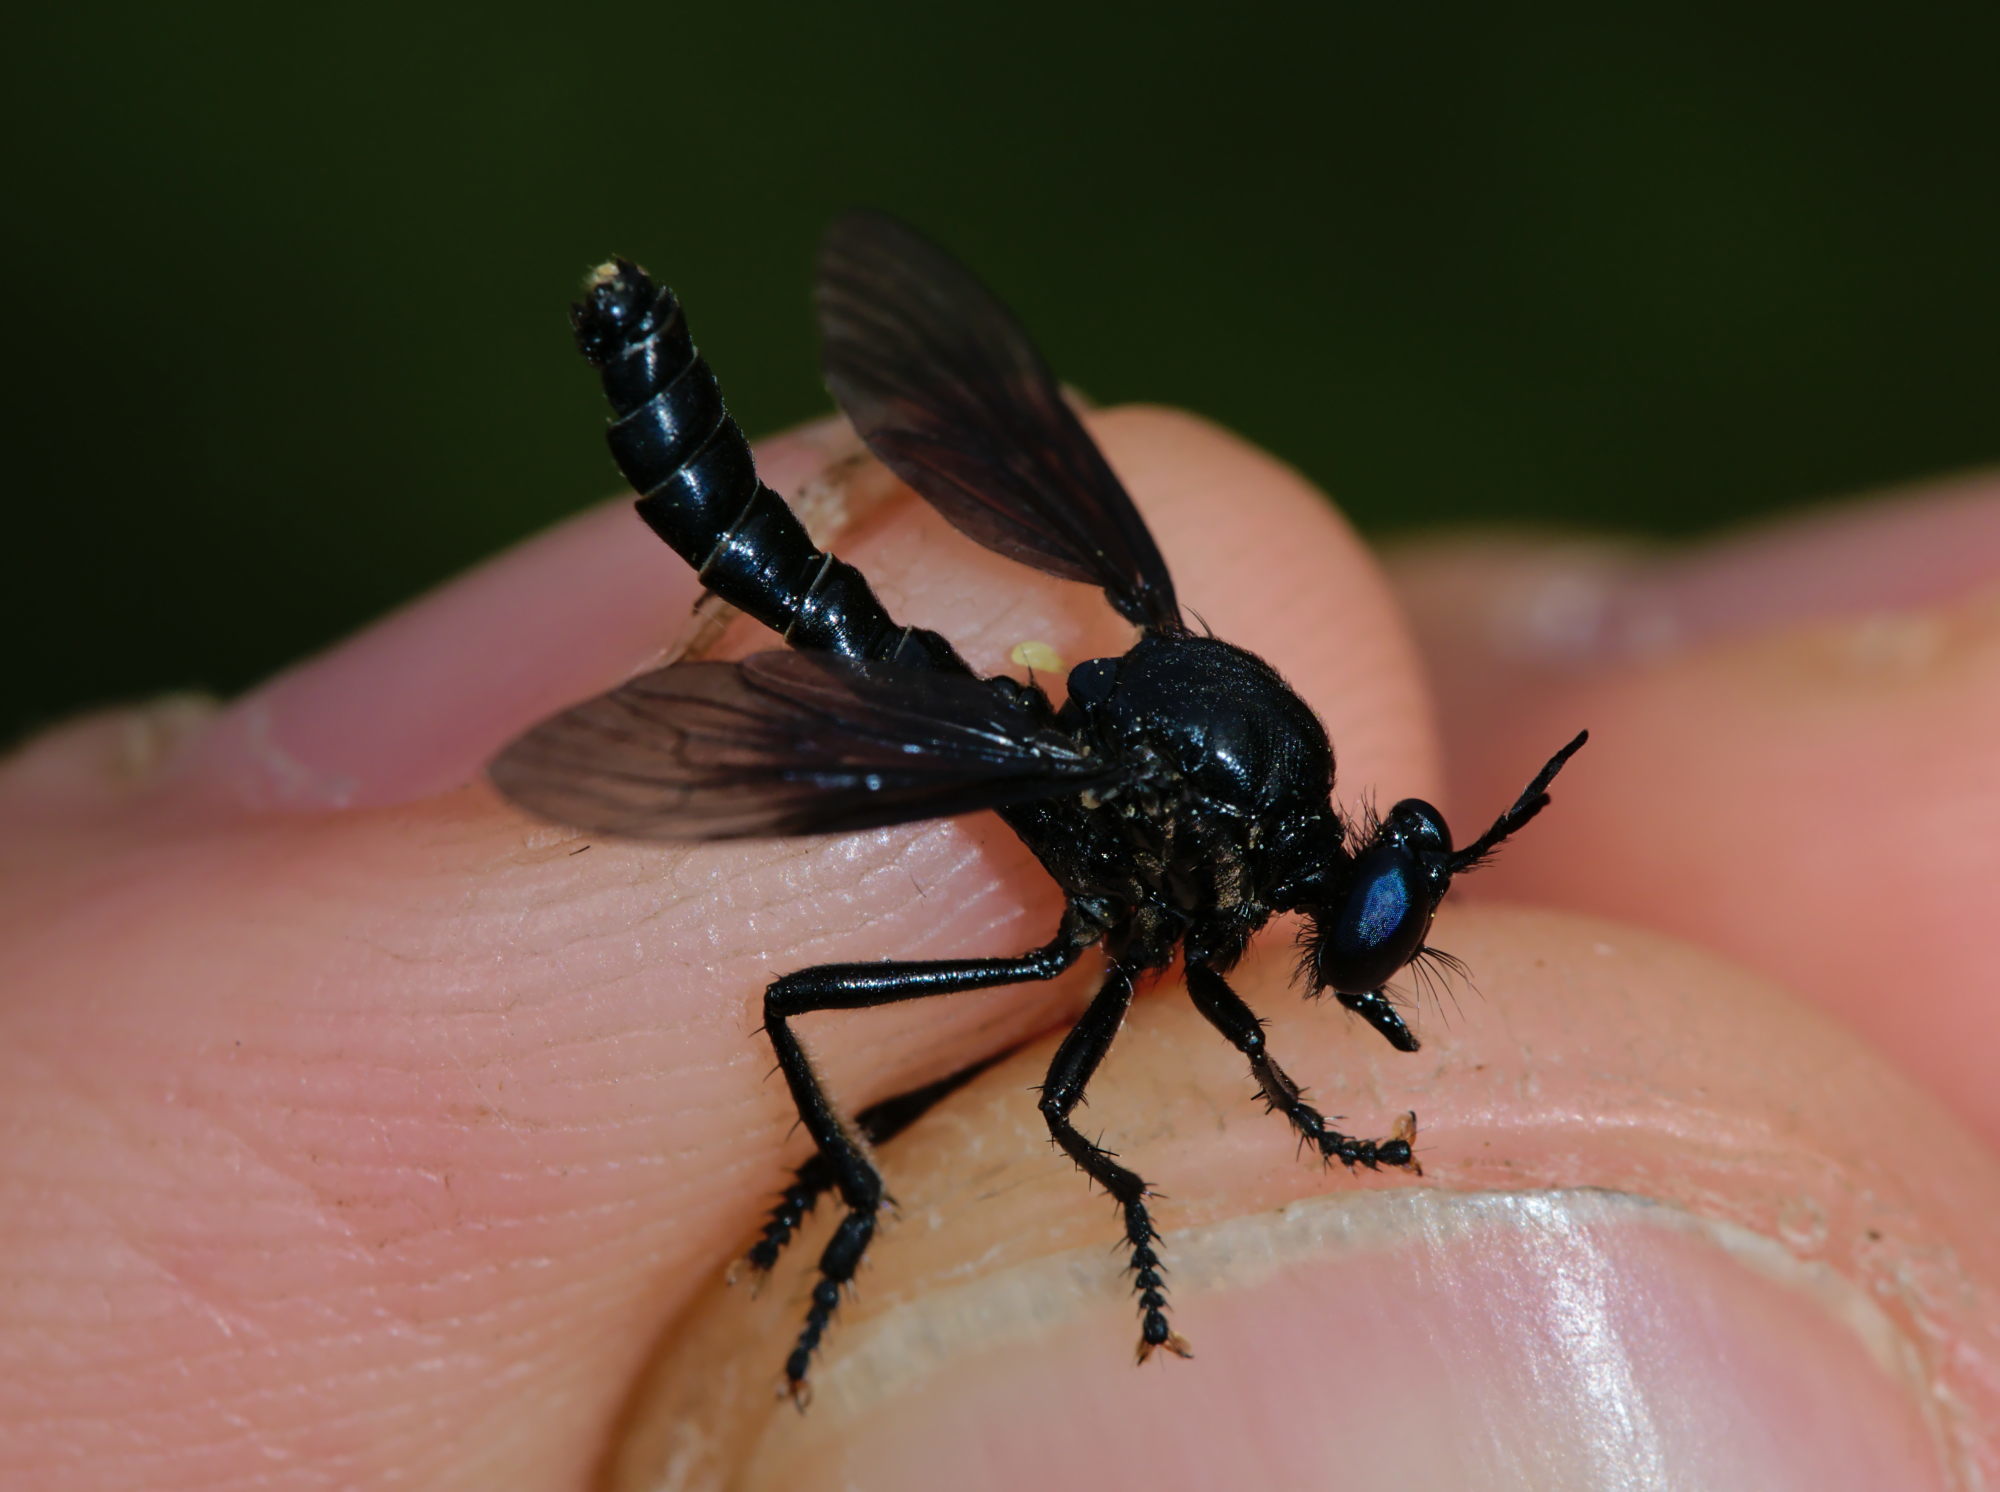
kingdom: Animalia
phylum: Arthropoda
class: Insecta
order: Diptera
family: Asilidae
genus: Dioctria
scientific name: Dioctria atricapilla
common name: Violet black-legged
